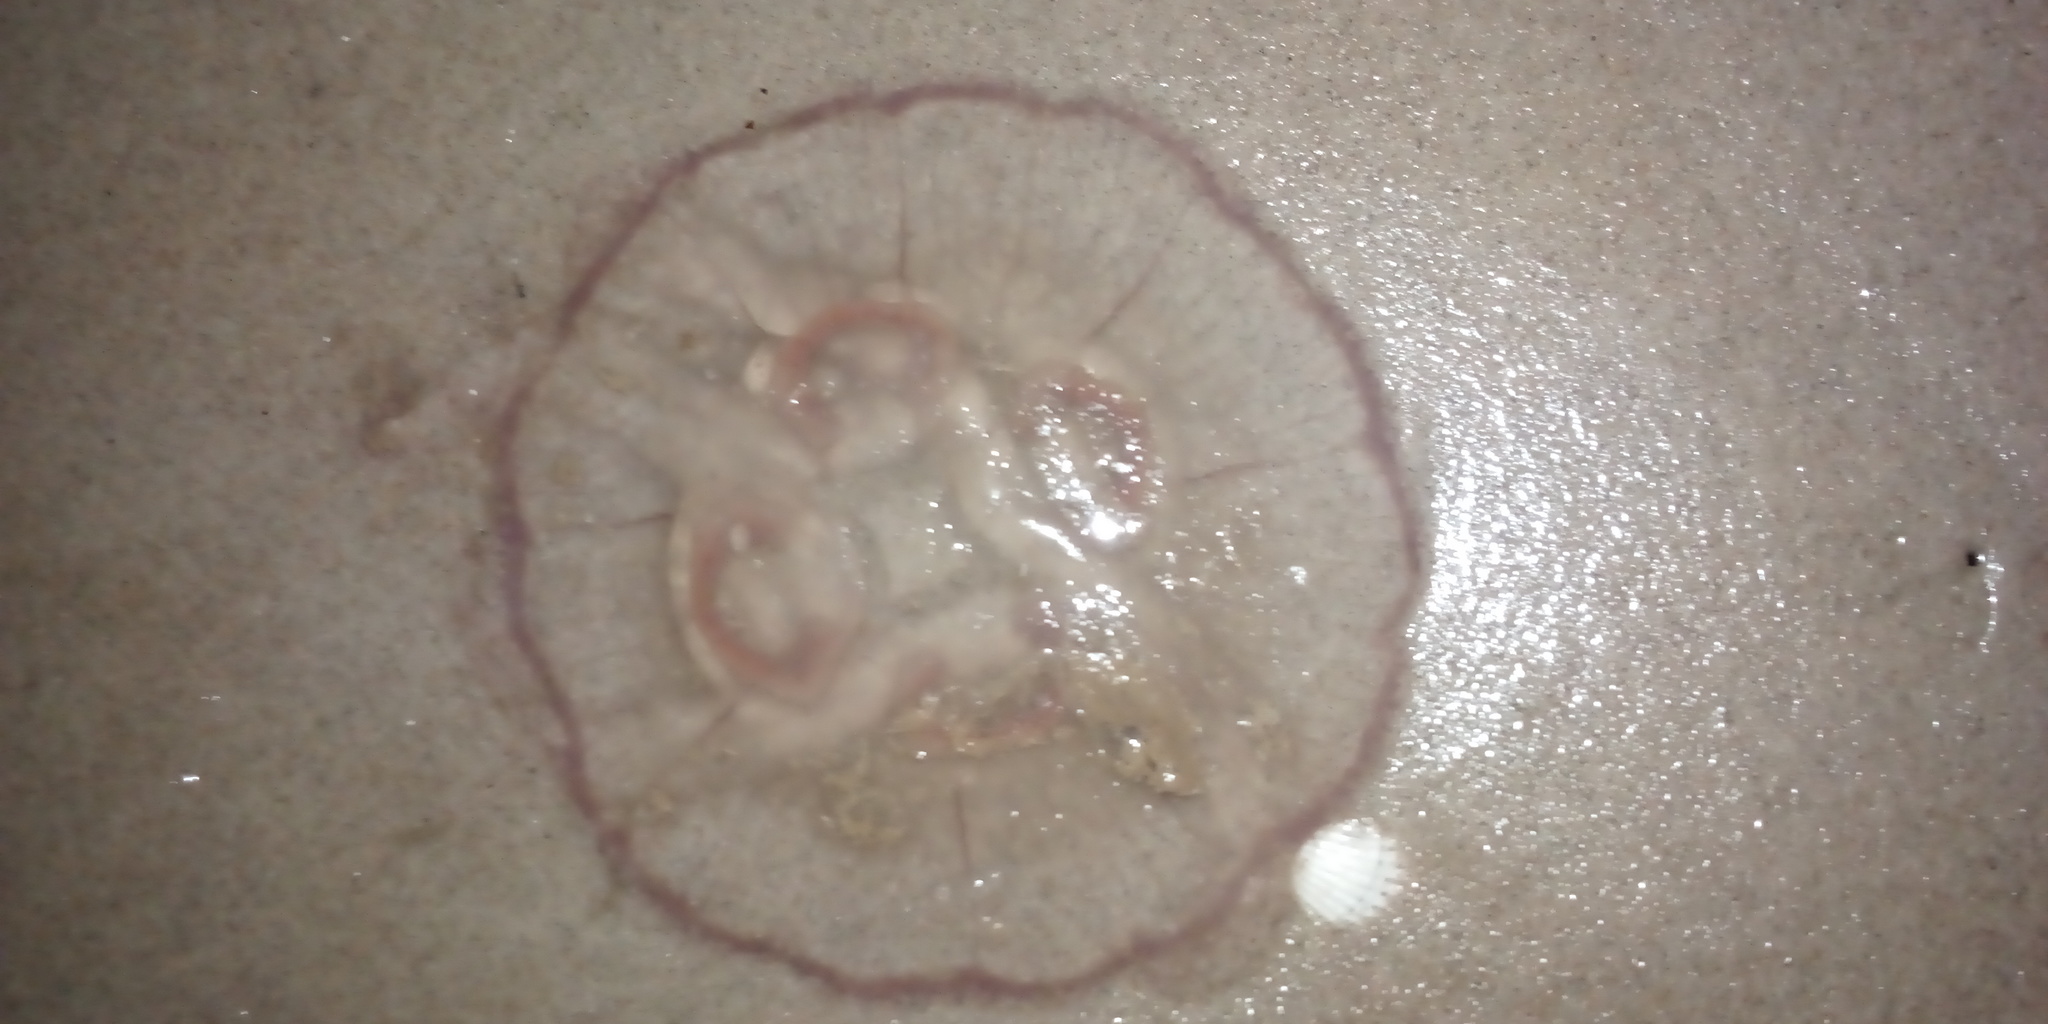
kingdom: Animalia
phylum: Cnidaria
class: Scyphozoa
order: Semaeostomeae
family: Ulmaridae
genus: Aurelia
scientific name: Aurelia aurita
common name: Moon jellyfish
